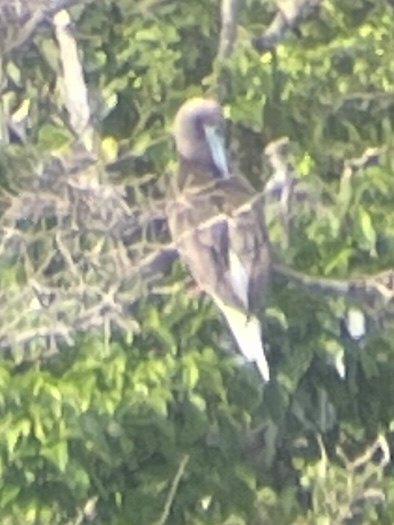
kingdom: Animalia
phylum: Chordata
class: Aves
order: Suliformes
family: Sulidae
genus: Sula
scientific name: Sula sula
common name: Red-footed booby
